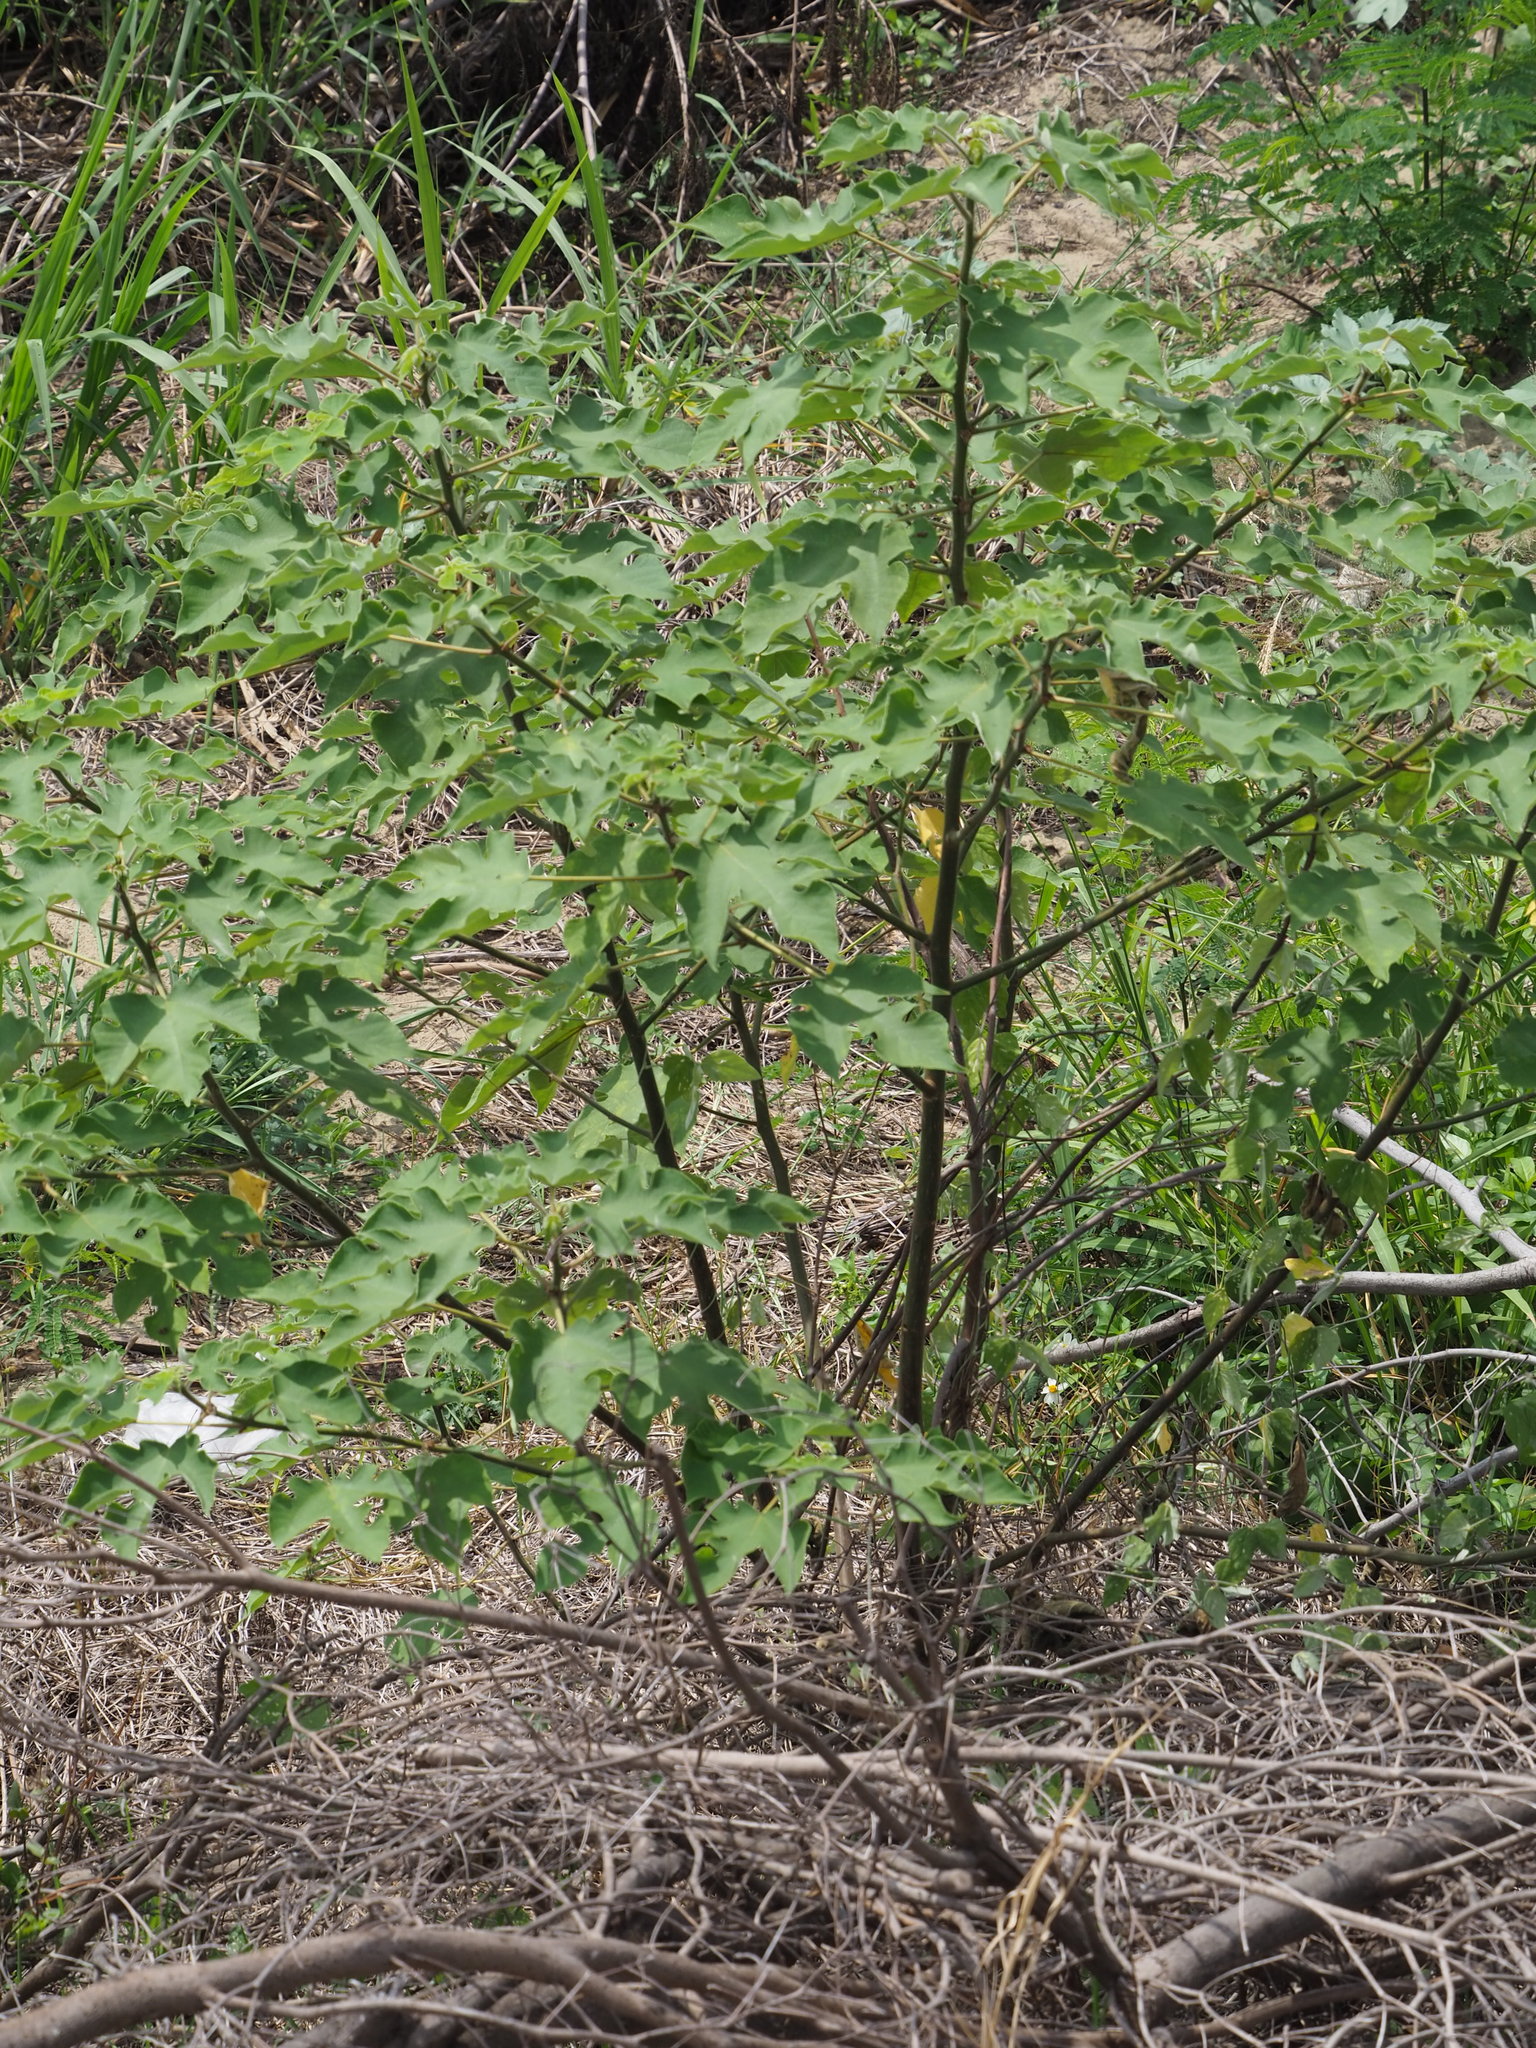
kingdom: Plantae
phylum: Tracheophyta
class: Magnoliopsida
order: Rosales
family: Moraceae
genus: Broussonetia
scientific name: Broussonetia papyrifera
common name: Paper mulberry
